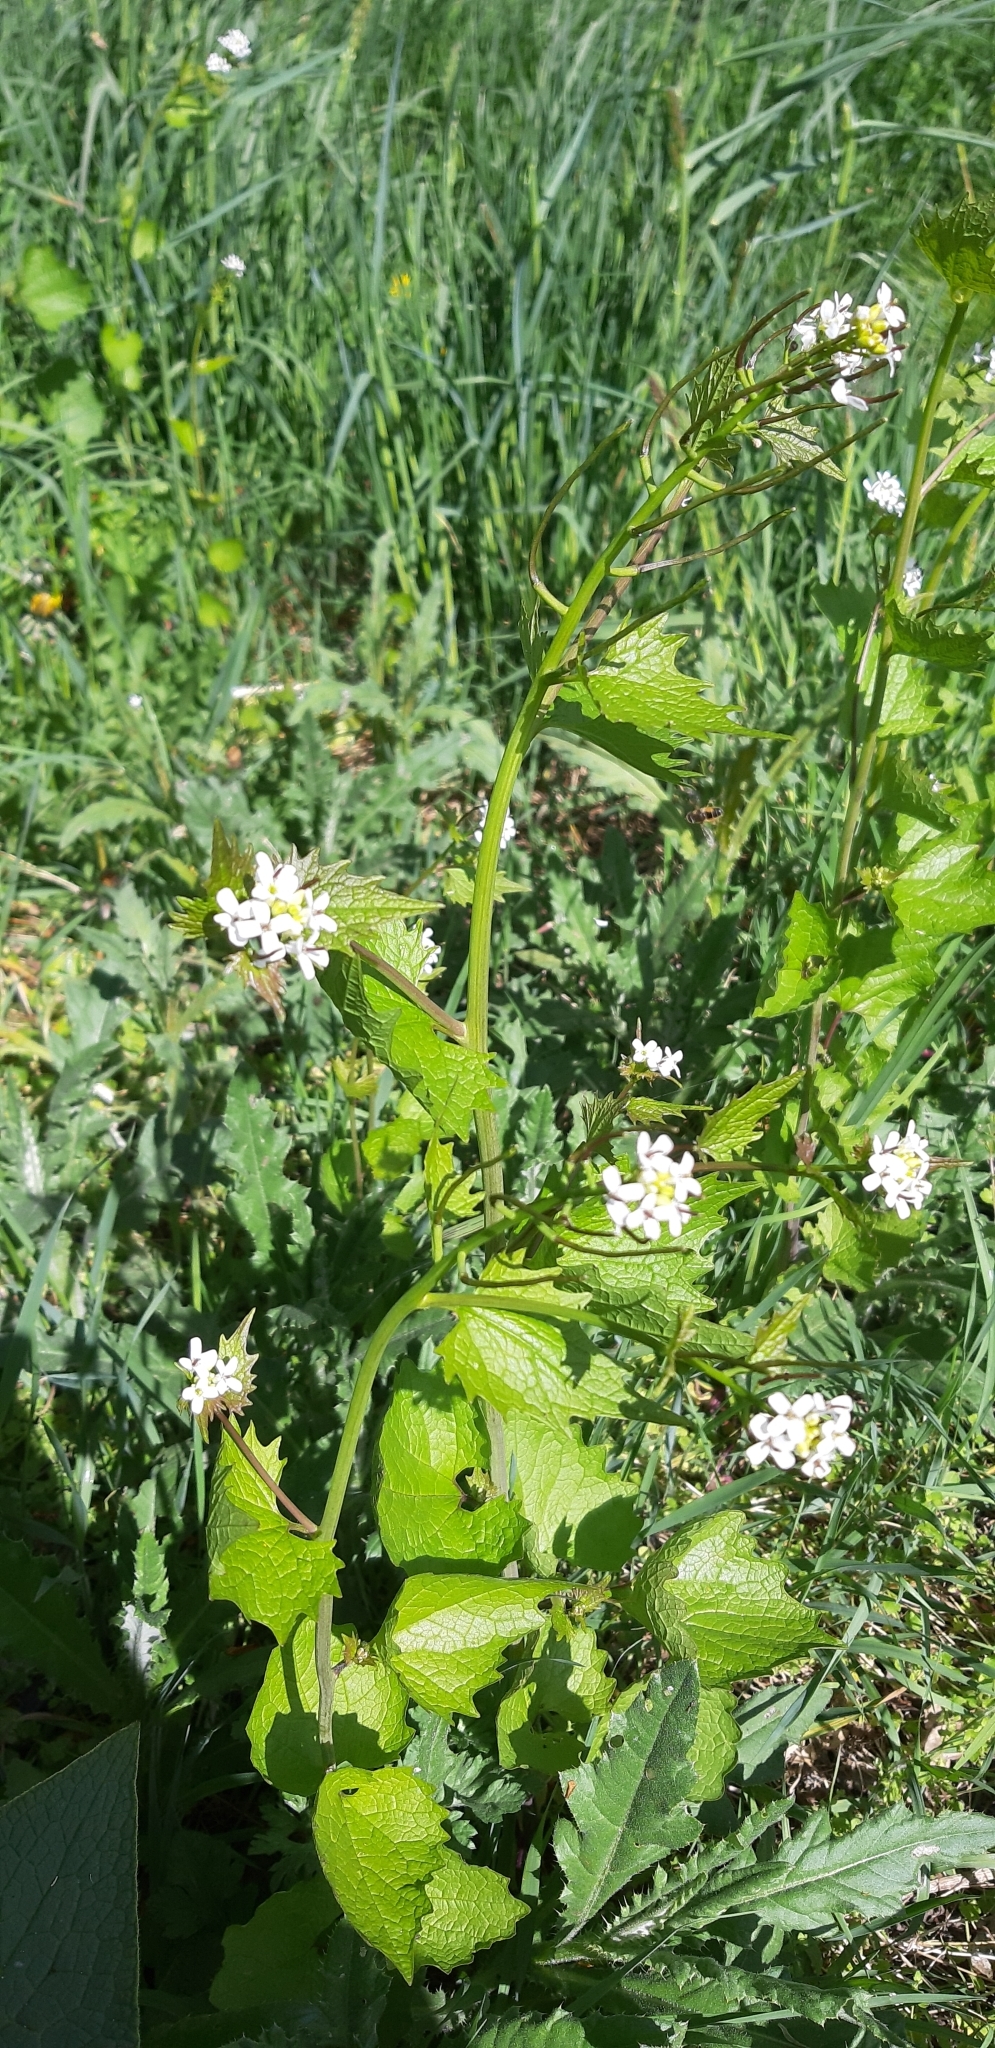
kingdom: Plantae
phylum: Tracheophyta
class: Magnoliopsida
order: Brassicales
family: Brassicaceae
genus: Alliaria
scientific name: Alliaria petiolata
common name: Garlic mustard
